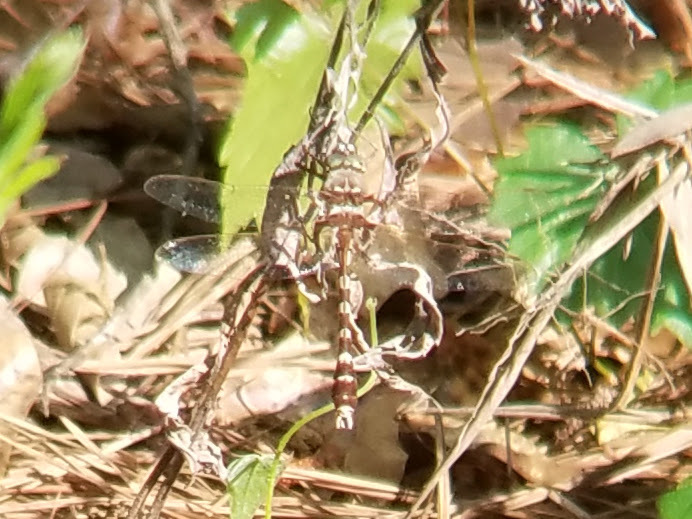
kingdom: Animalia
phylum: Arthropoda
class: Insecta
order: Odonata
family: Macromiidae
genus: Didymops
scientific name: Didymops transversa
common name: Stream cruiser
